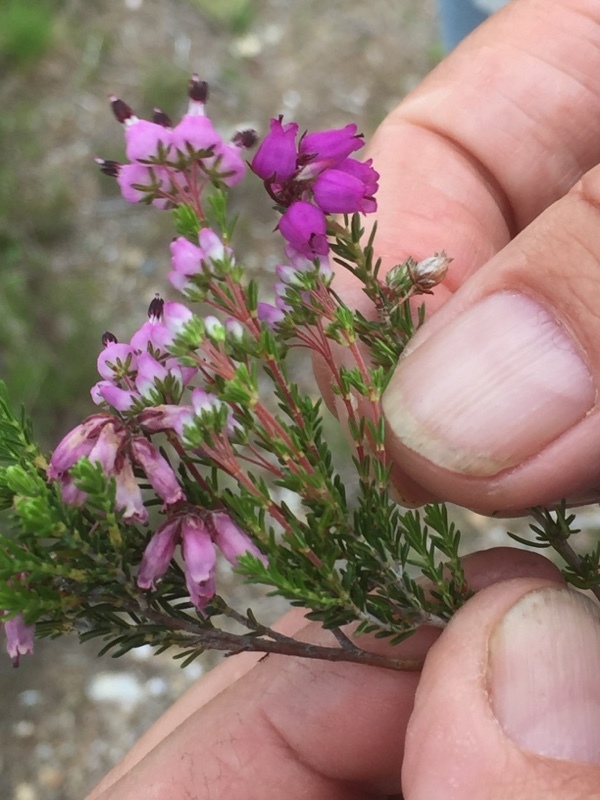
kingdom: Plantae
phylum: Tracheophyta
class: Magnoliopsida
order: Ericales
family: Ericaceae
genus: Erica
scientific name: Erica australis
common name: Spanish heath
